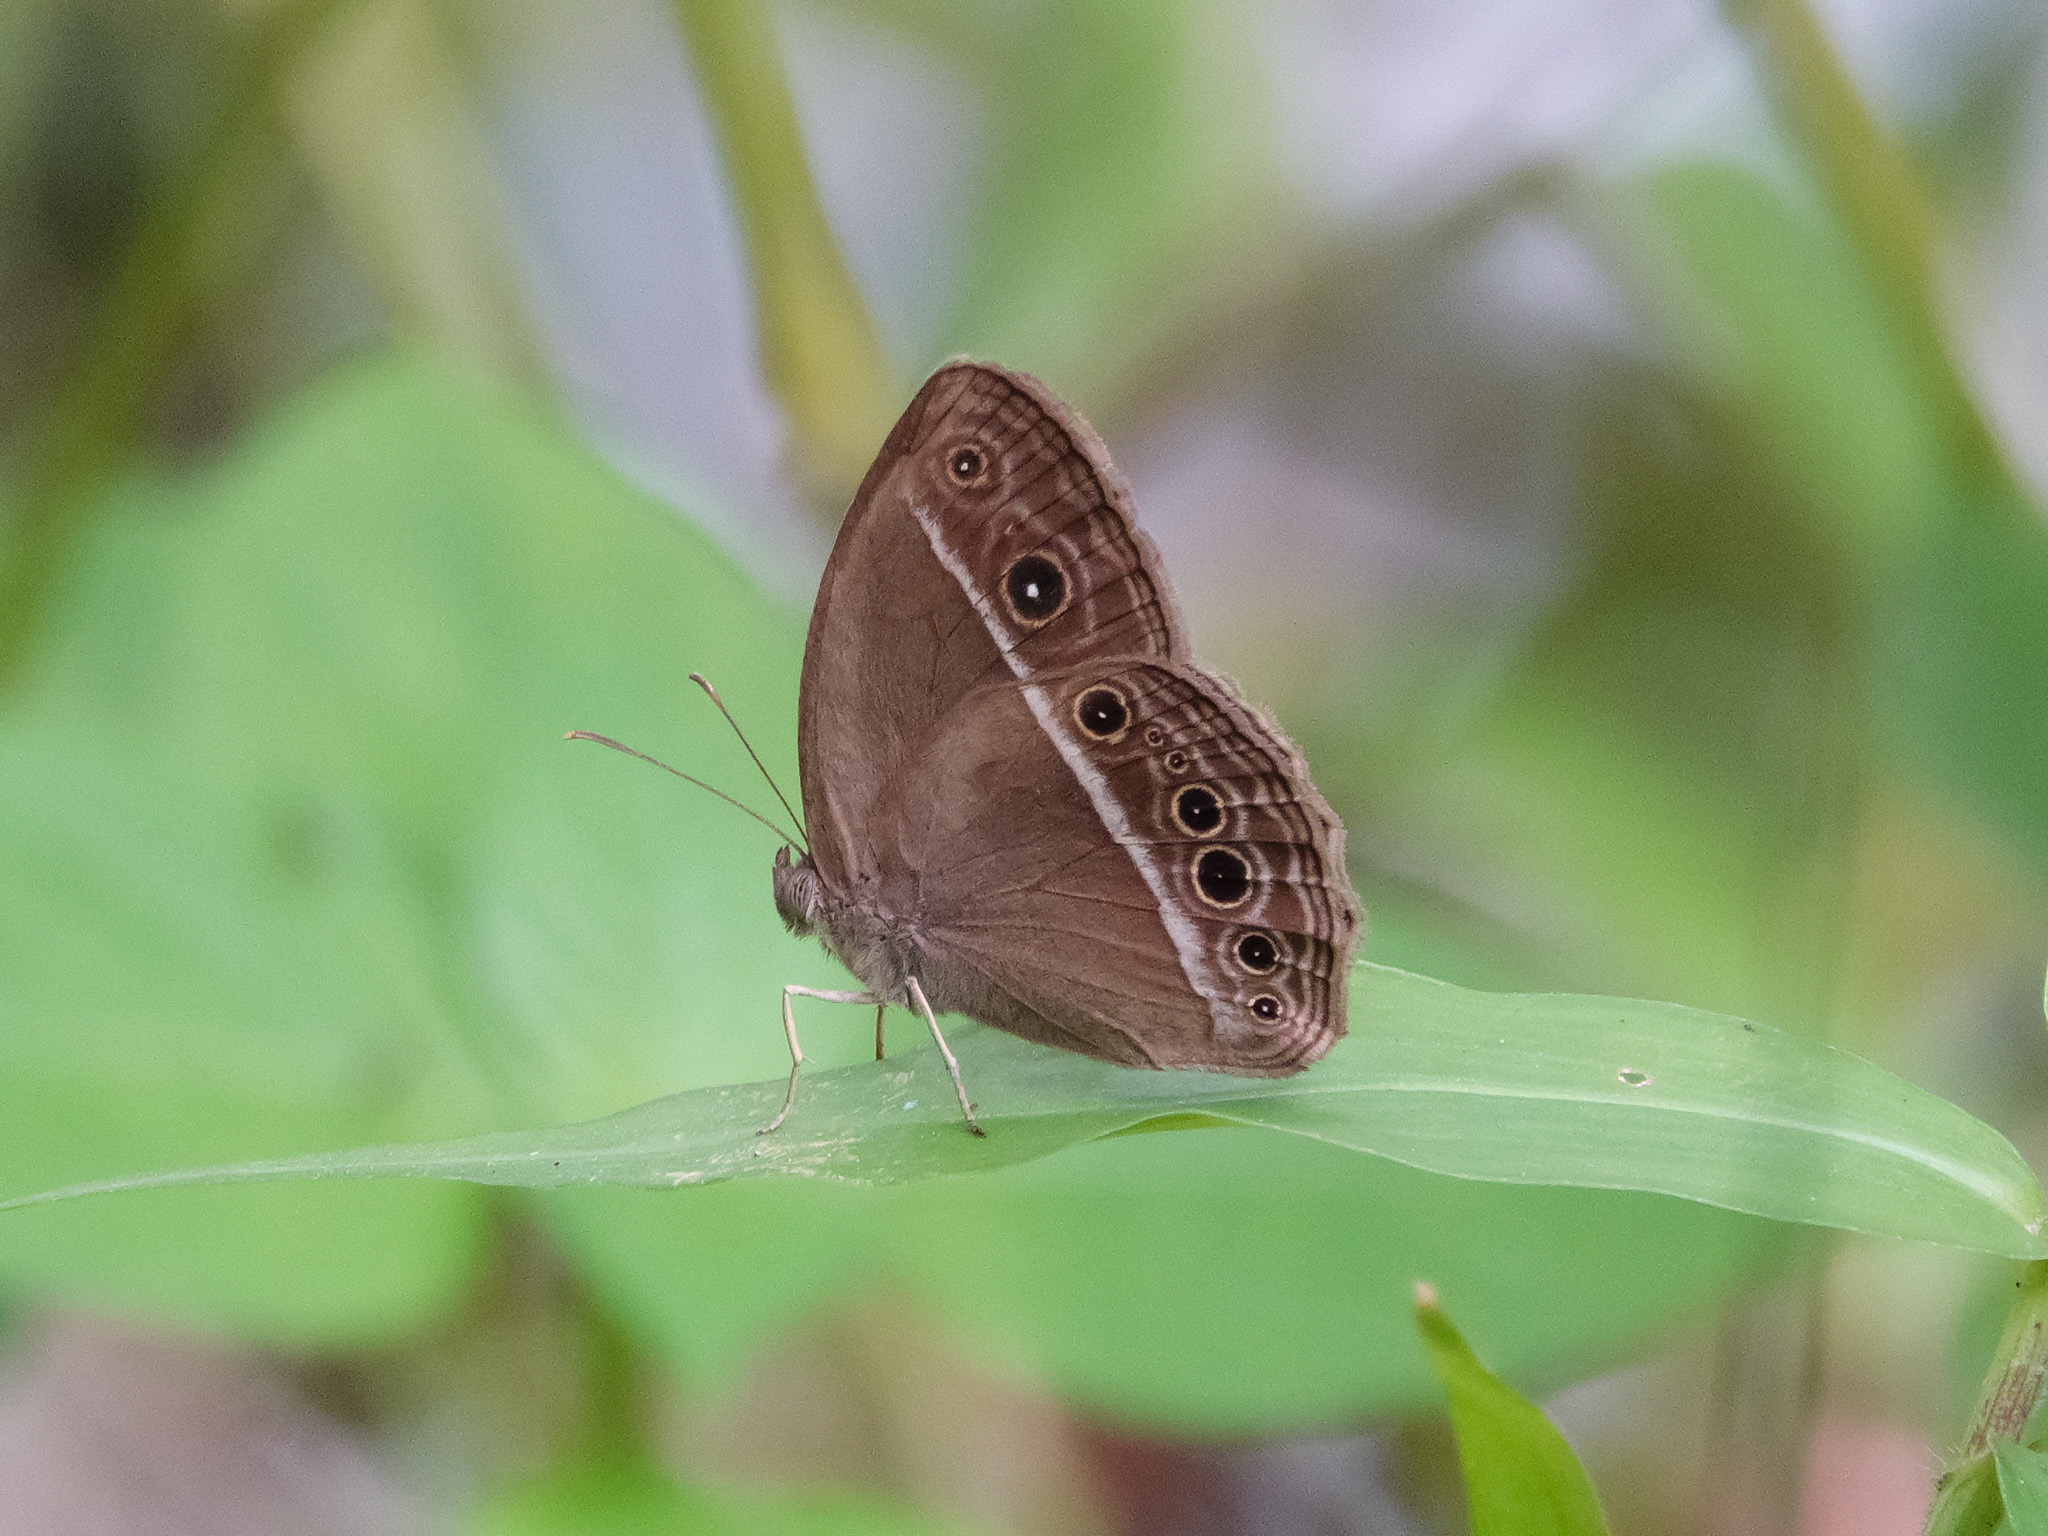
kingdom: Animalia
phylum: Arthropoda
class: Insecta
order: Lepidoptera
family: Nymphalidae
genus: Mycalesis
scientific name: Mycalesis mineus
